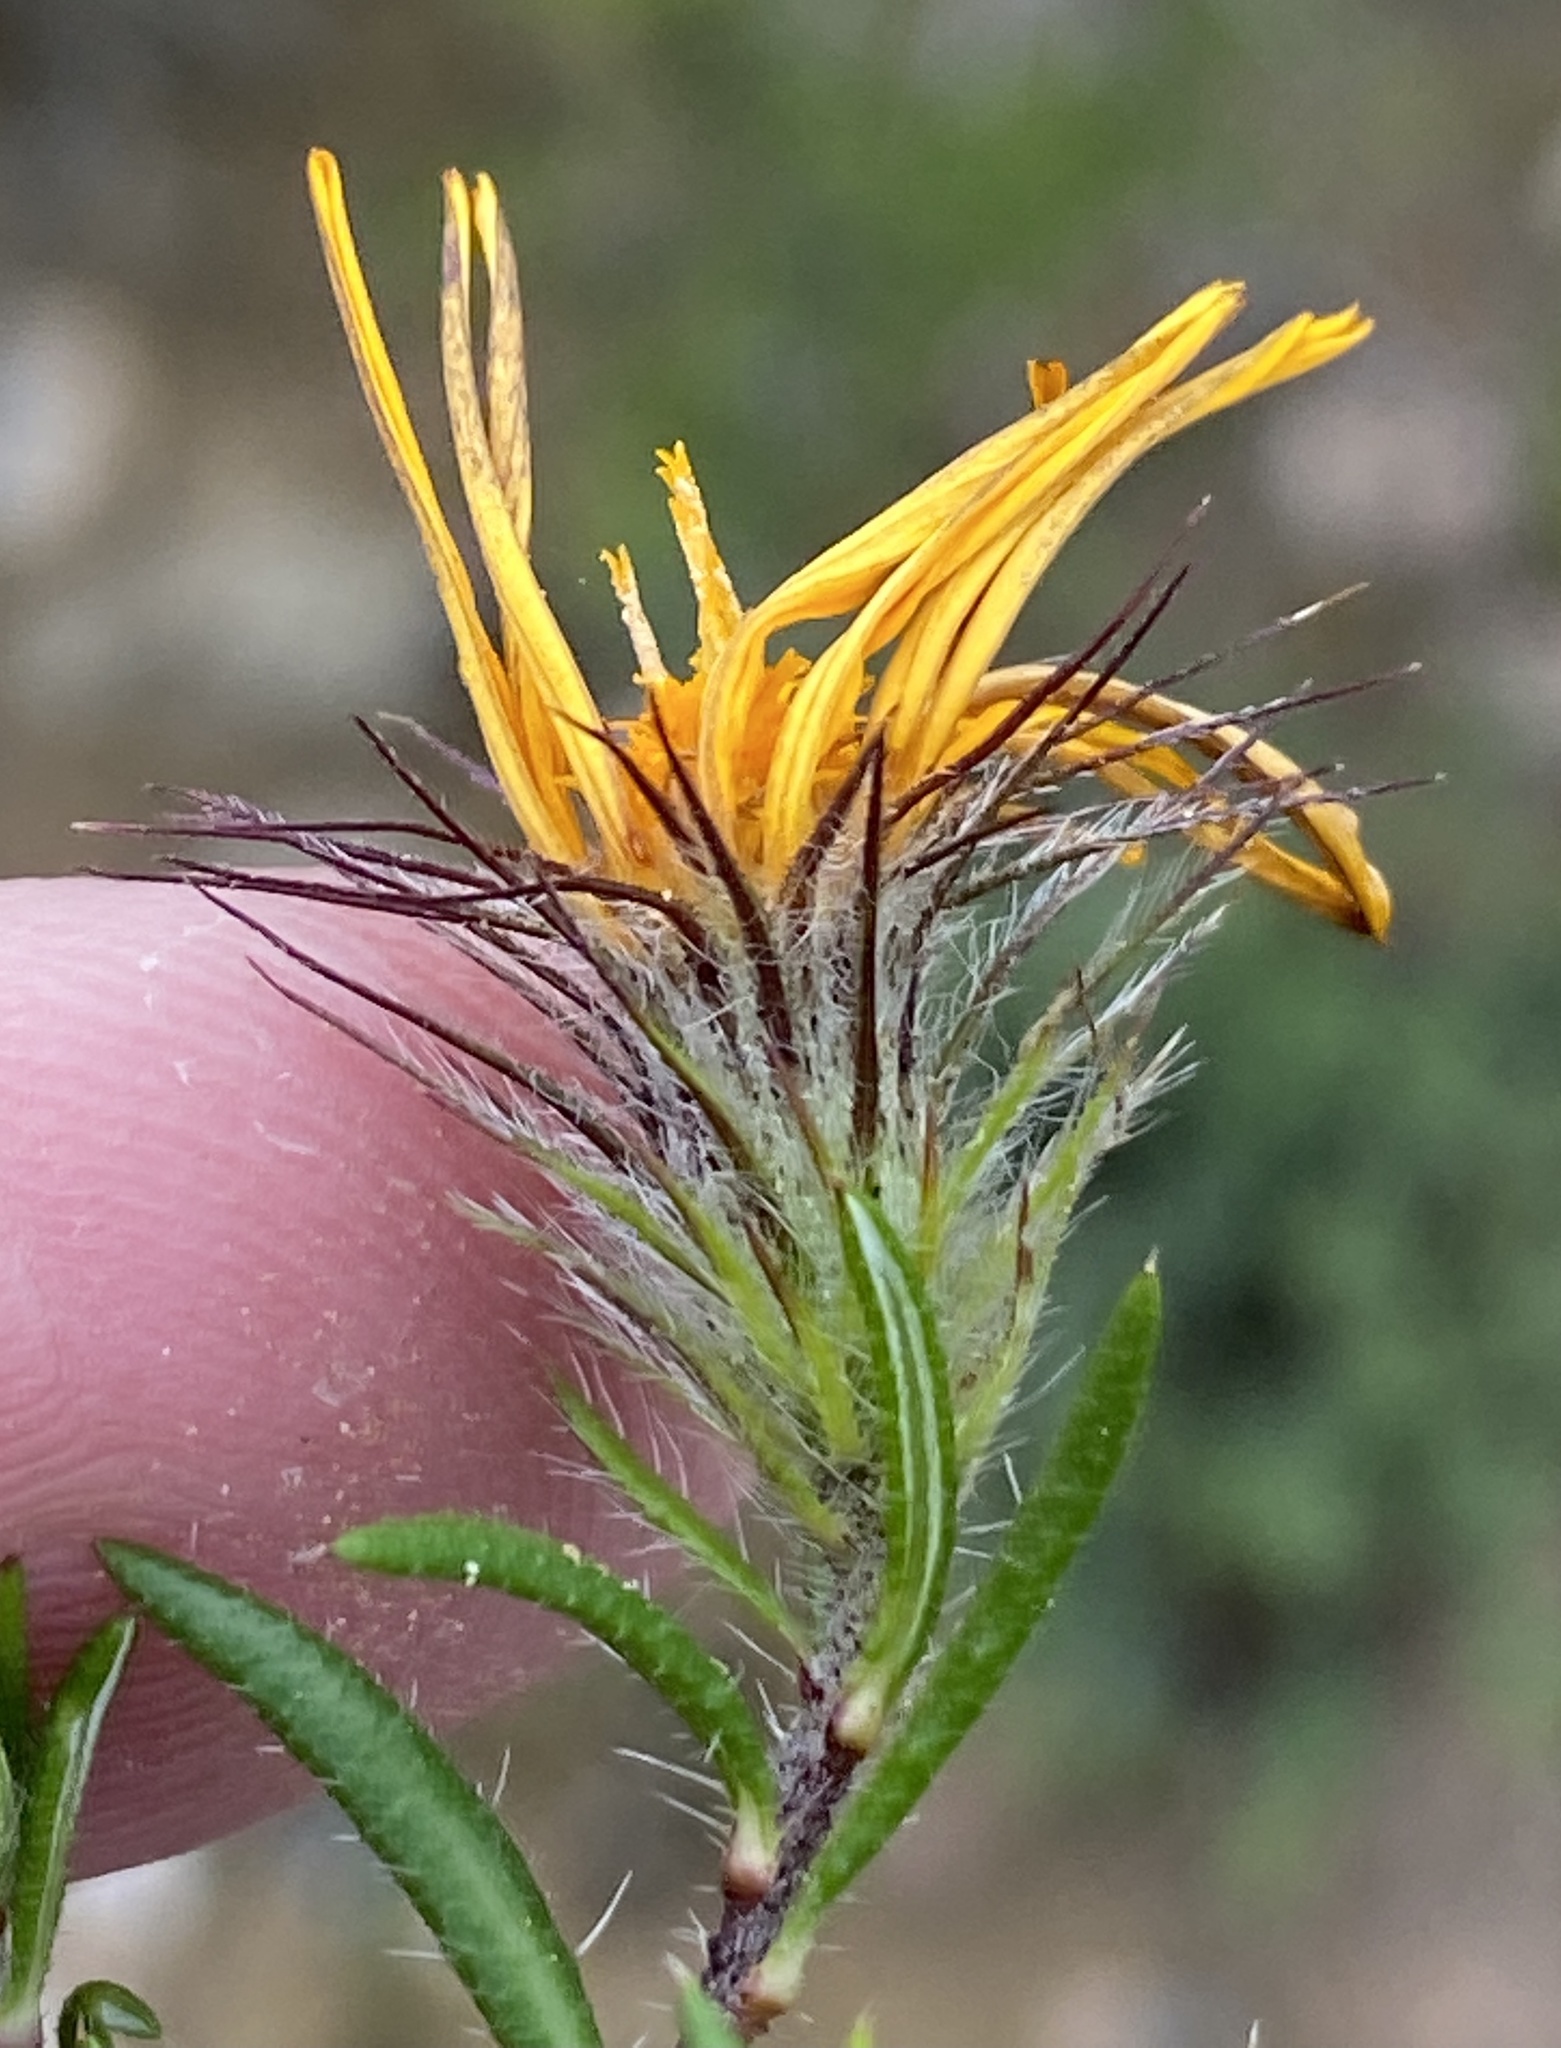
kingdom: Plantae
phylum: Tracheophyta
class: Magnoliopsida
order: Asterales
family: Asteraceae
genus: Hirpicium
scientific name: Hirpicium integrifolium
